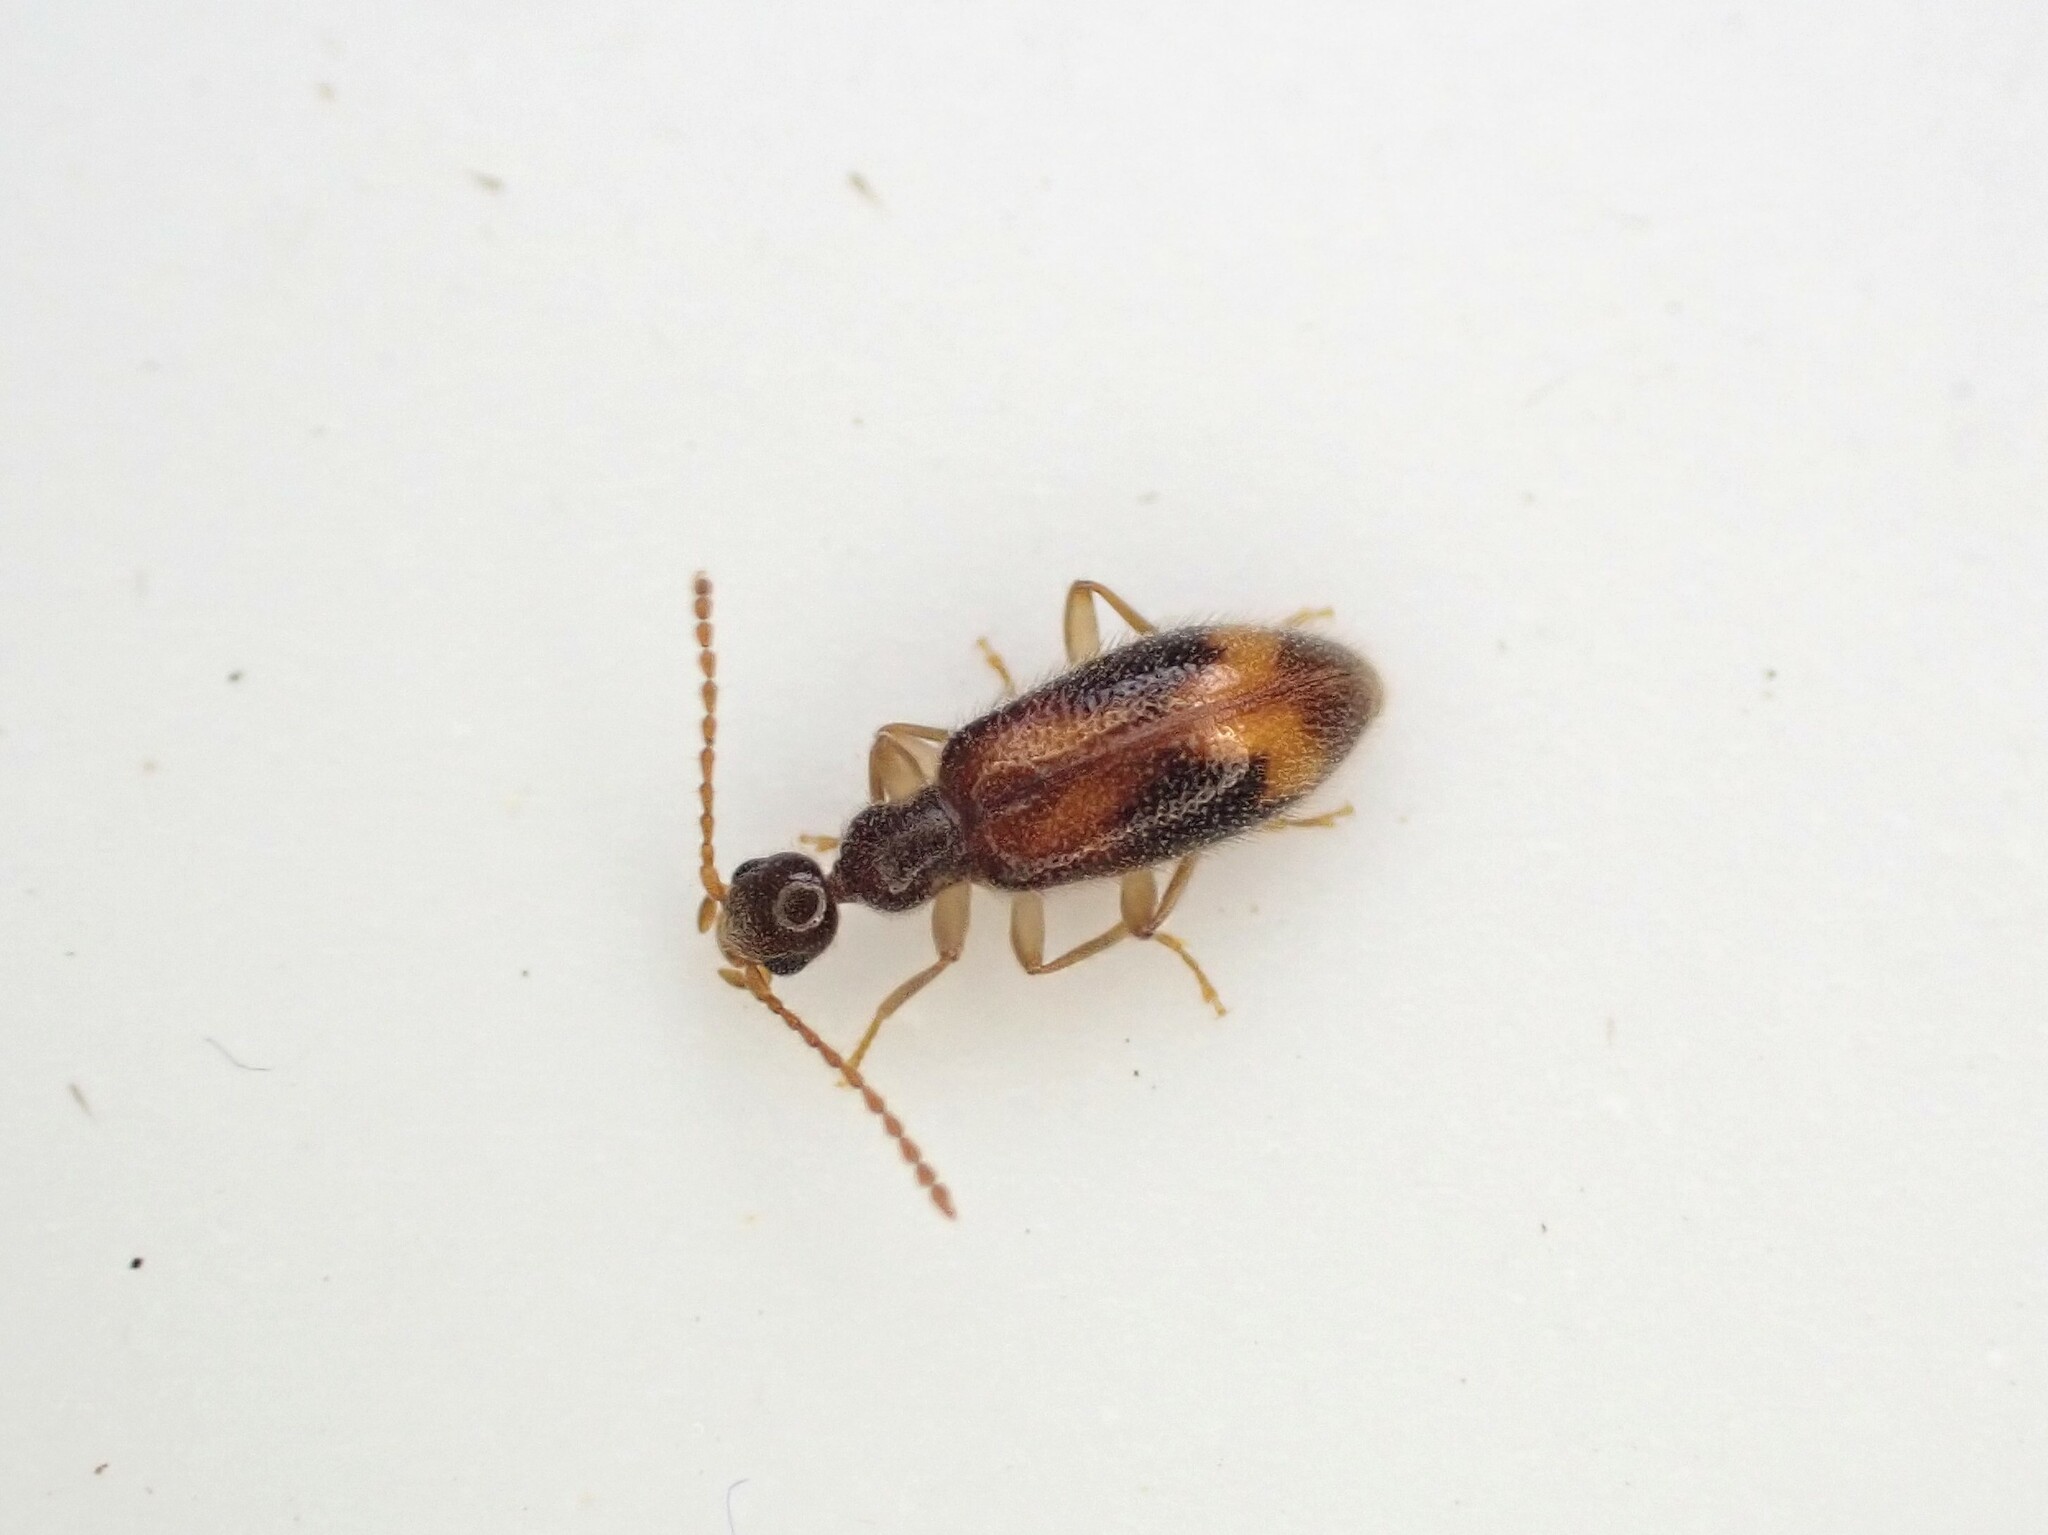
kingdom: Animalia
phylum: Arthropoda
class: Insecta
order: Coleoptera
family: Anthicidae
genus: Sapintus
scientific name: Sapintus pellucidipes
